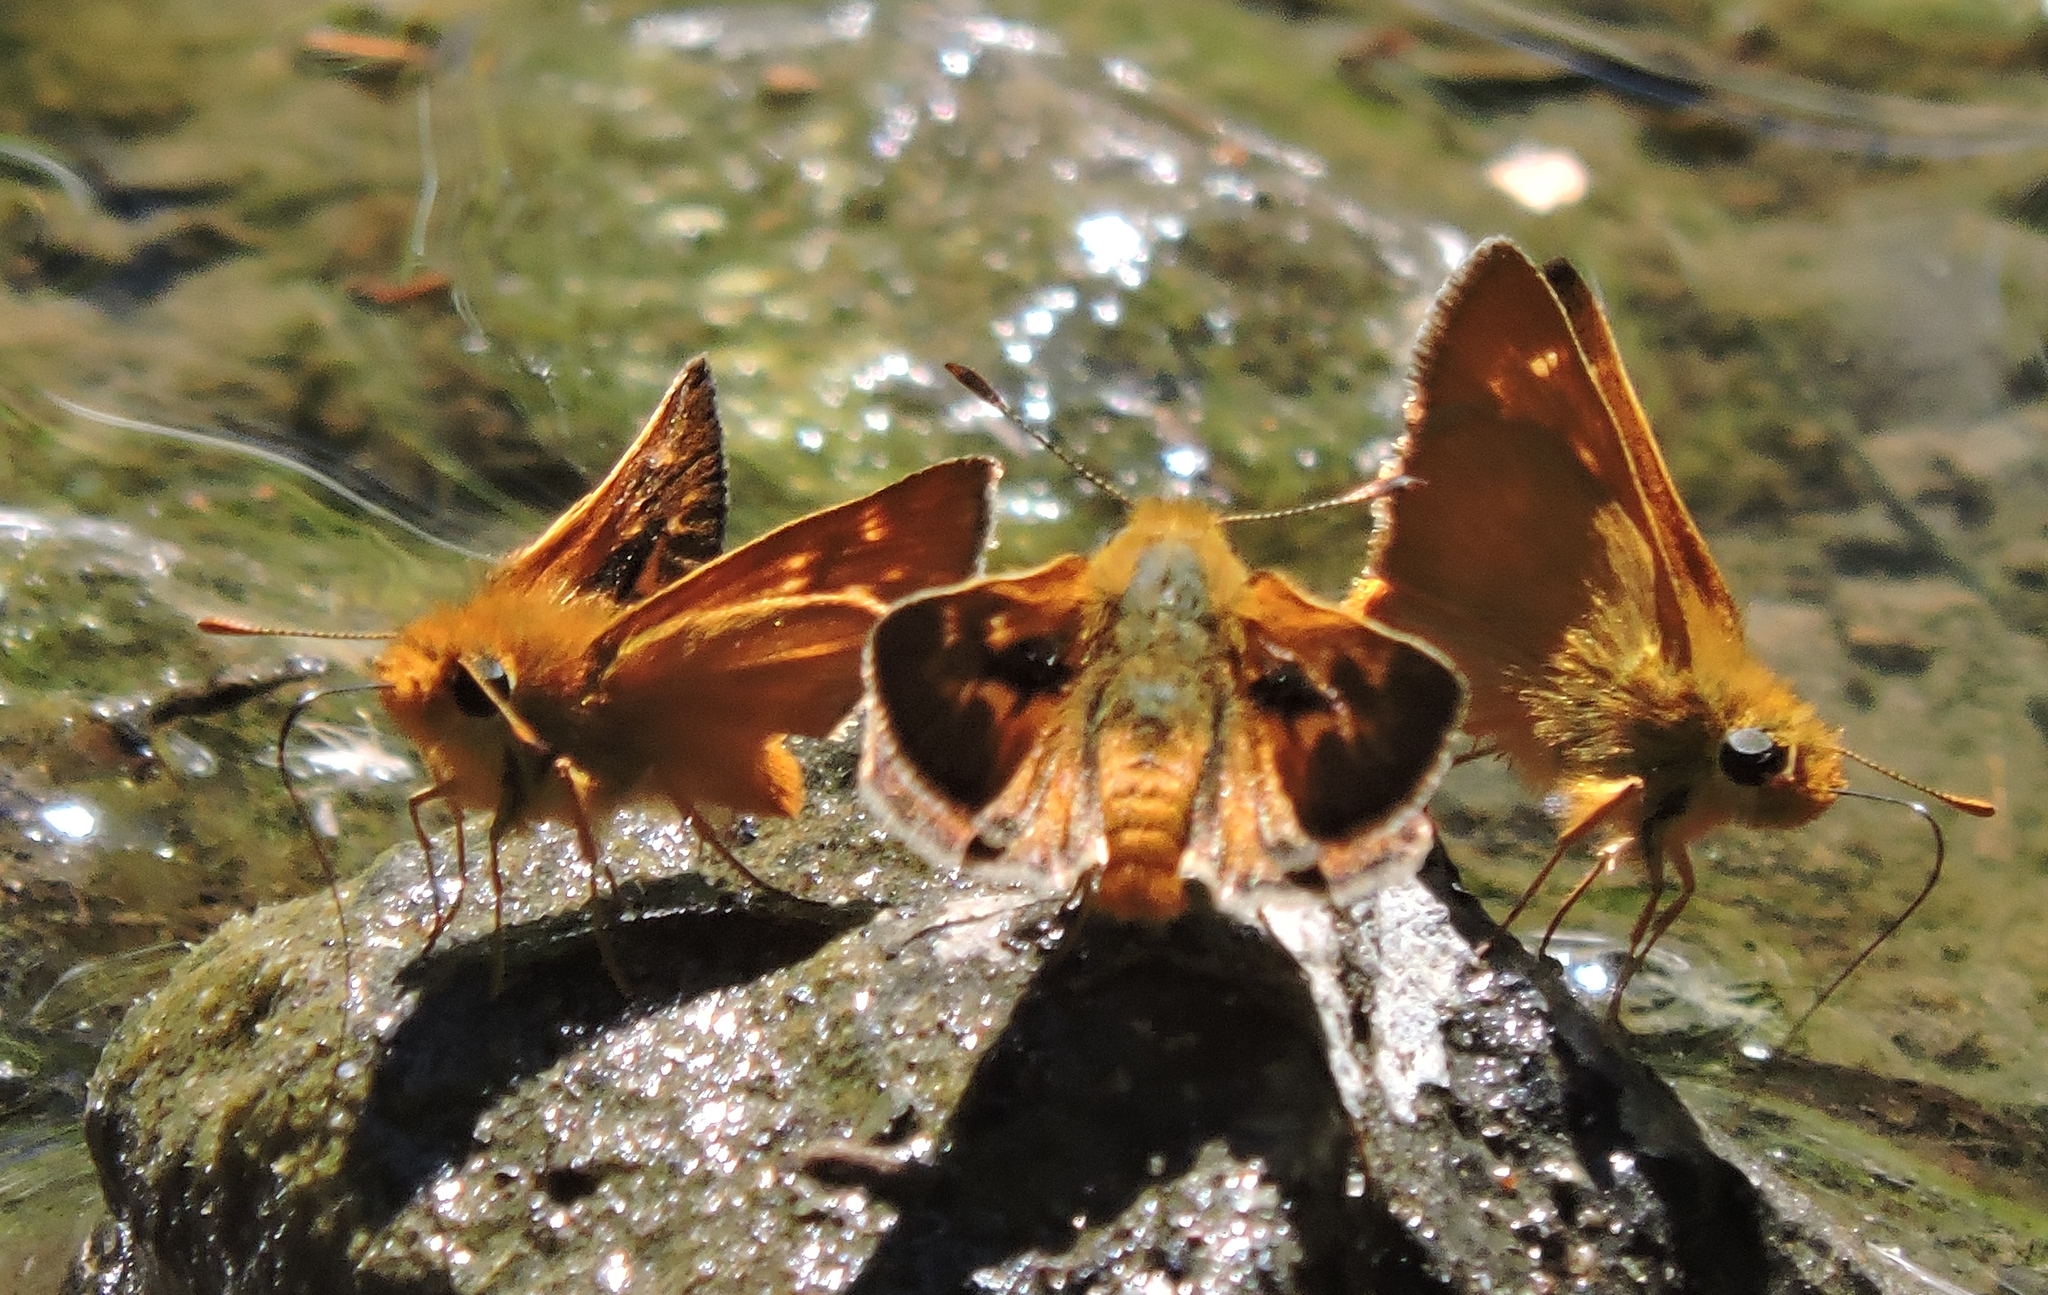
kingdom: Animalia
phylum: Arthropoda
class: Insecta
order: Lepidoptera
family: Hesperiidae
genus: Ochlodes
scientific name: Ochlodes agricola
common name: Rural skipper
